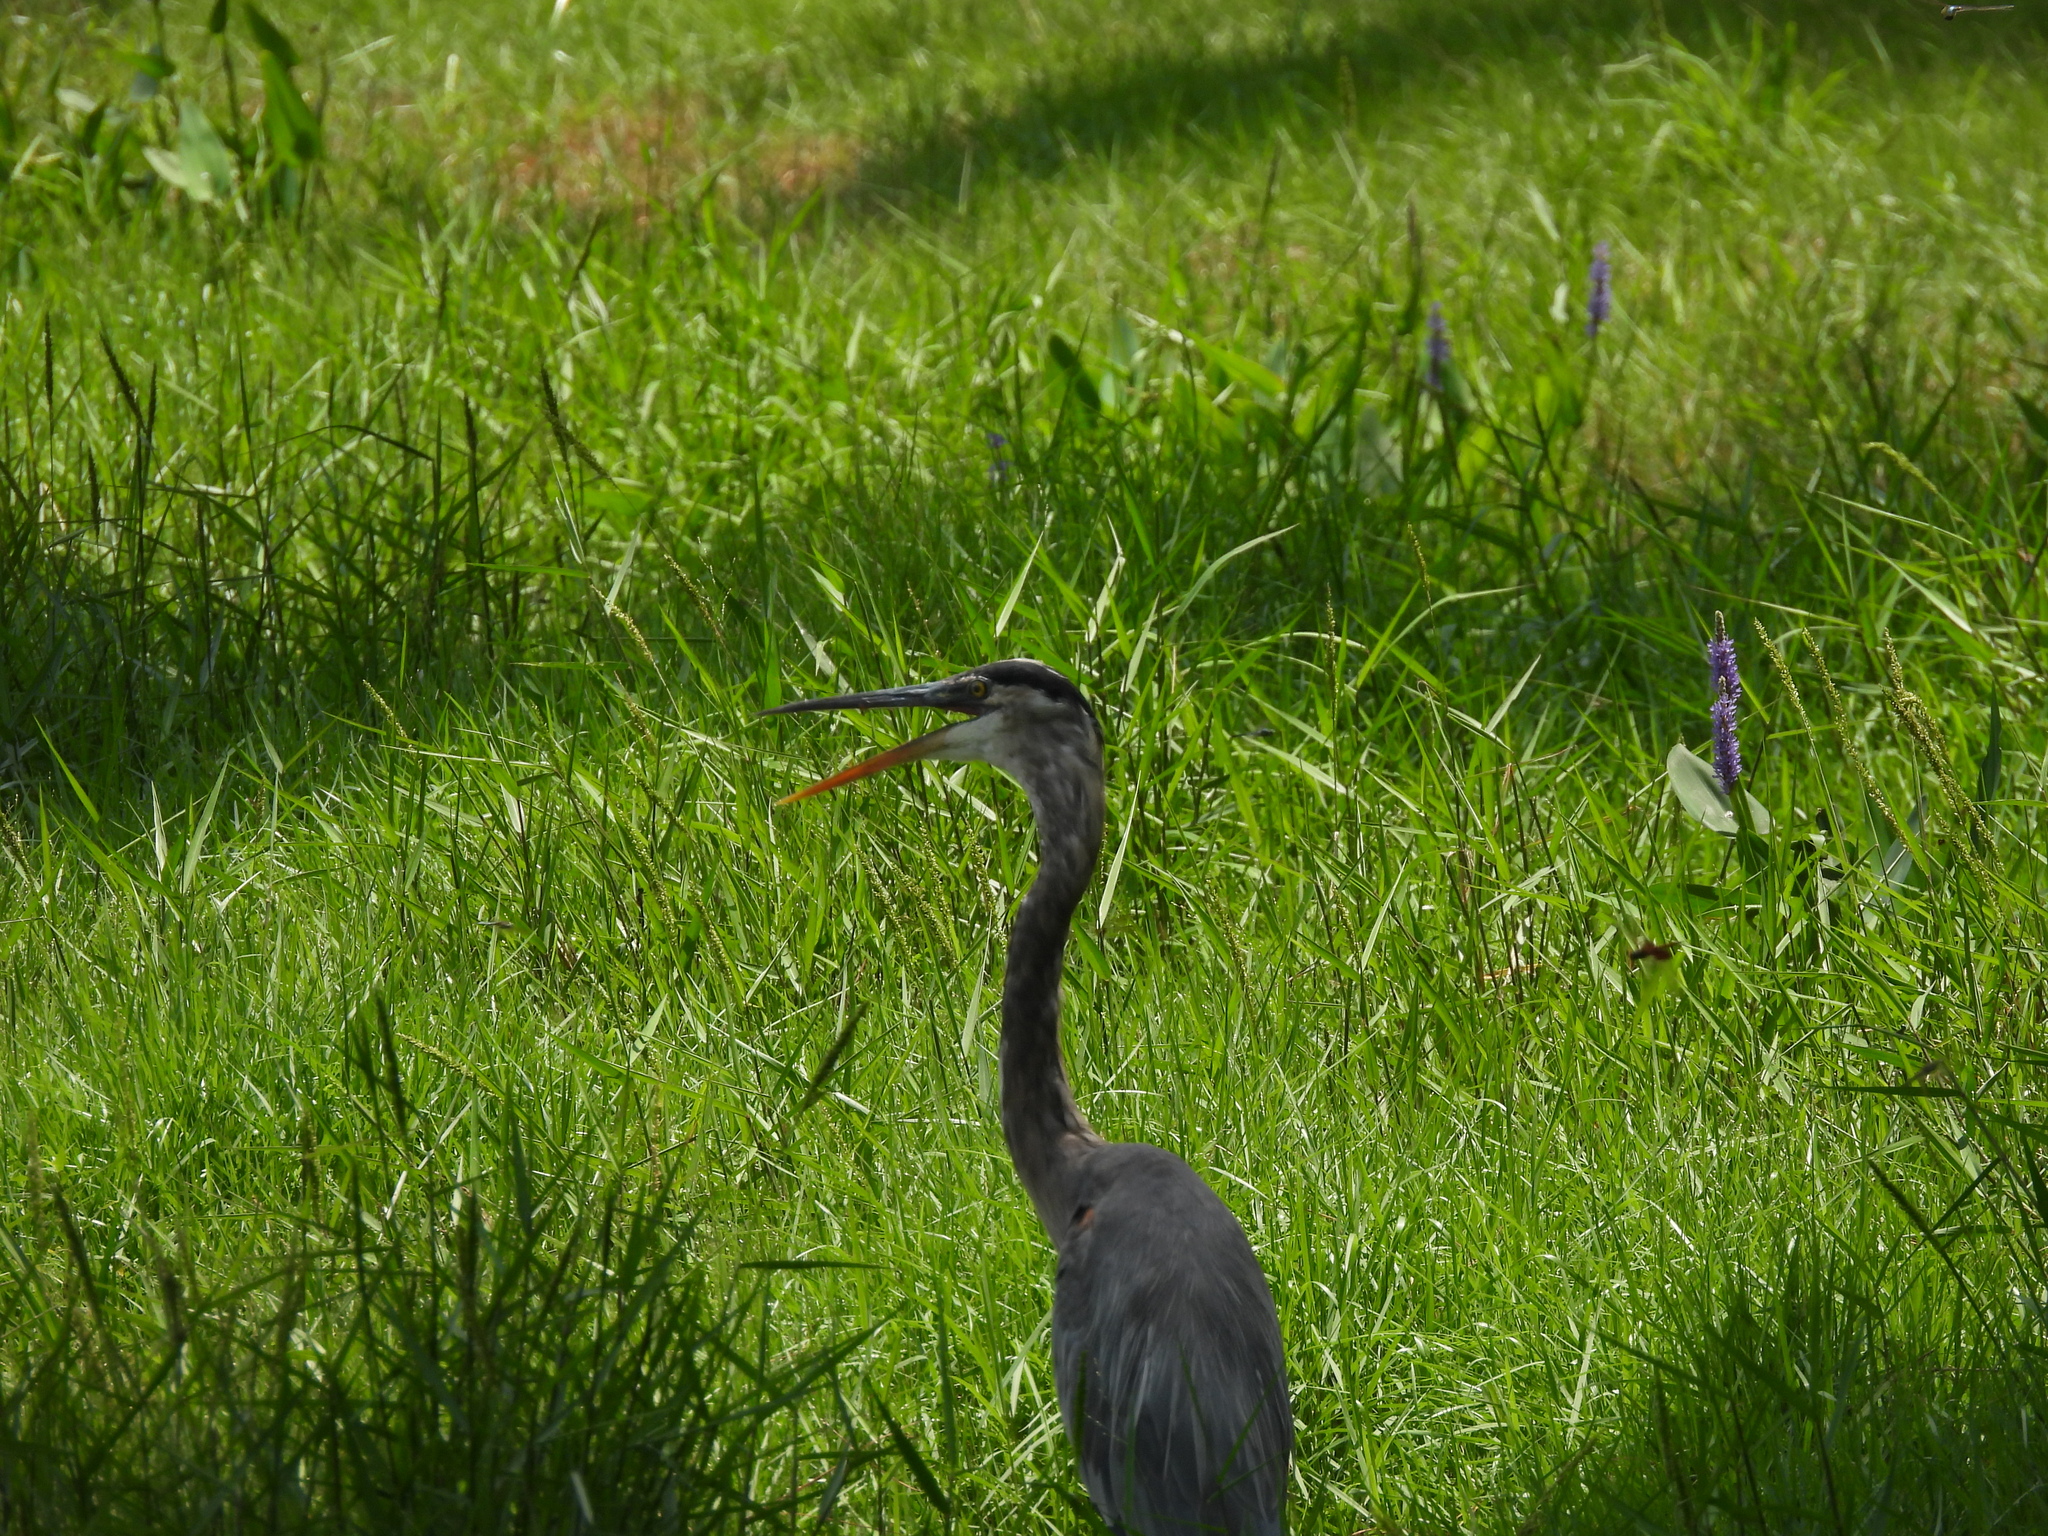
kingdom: Animalia
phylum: Chordata
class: Aves
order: Pelecaniformes
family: Ardeidae
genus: Ardea
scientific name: Ardea herodias
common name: Great blue heron
